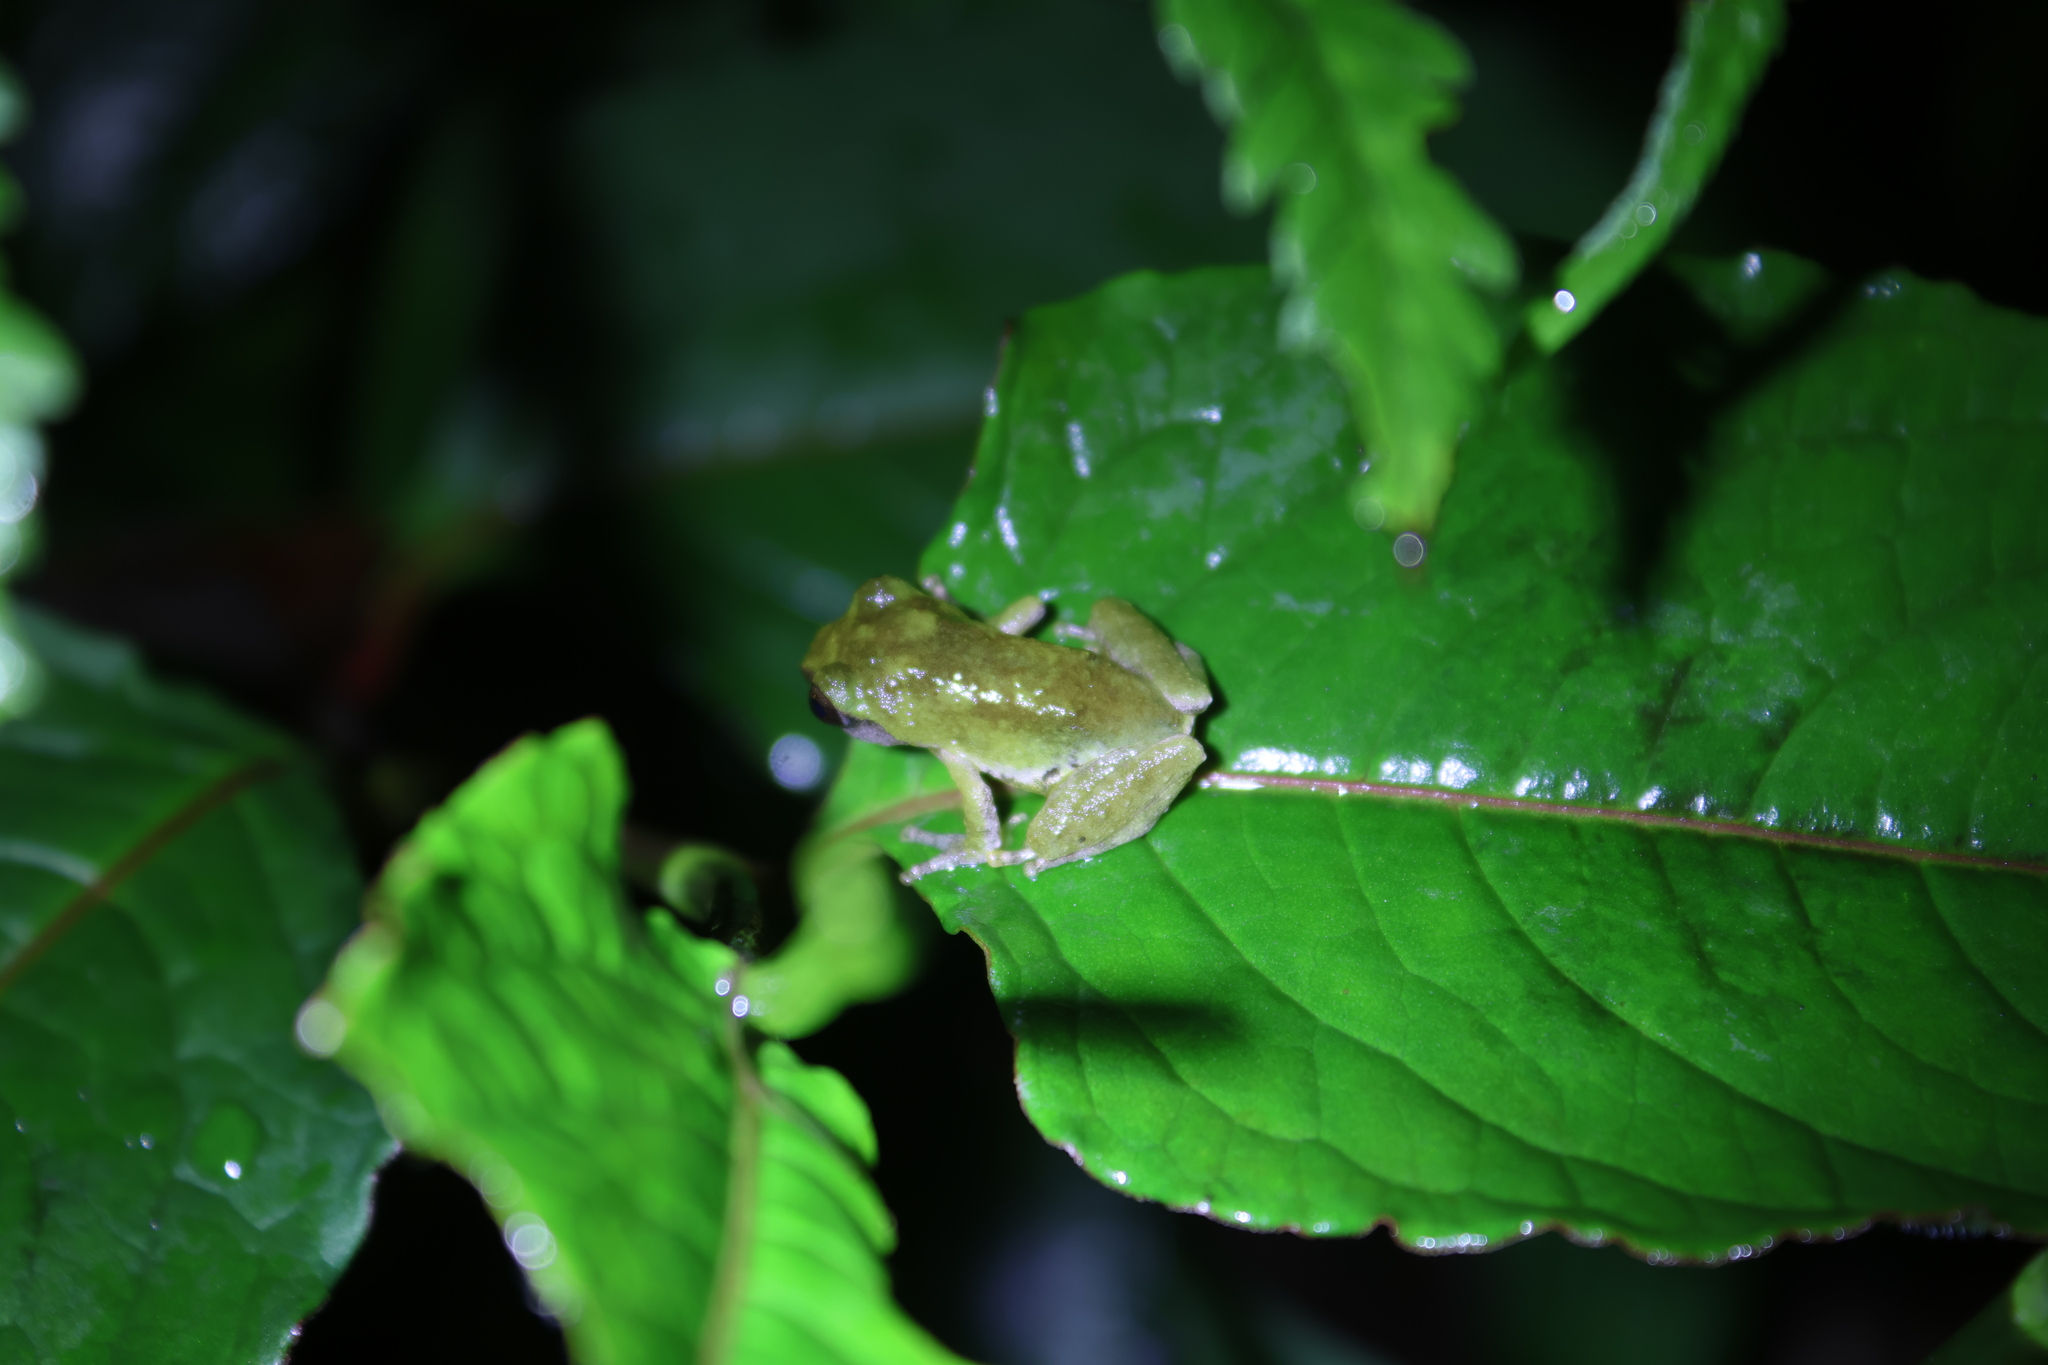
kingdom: Animalia
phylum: Chordata
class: Amphibia
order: Anura
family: Rhacophoridae
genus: Kurixalus
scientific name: Kurixalus eiffingeri
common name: Eiffinger’s treefrog
